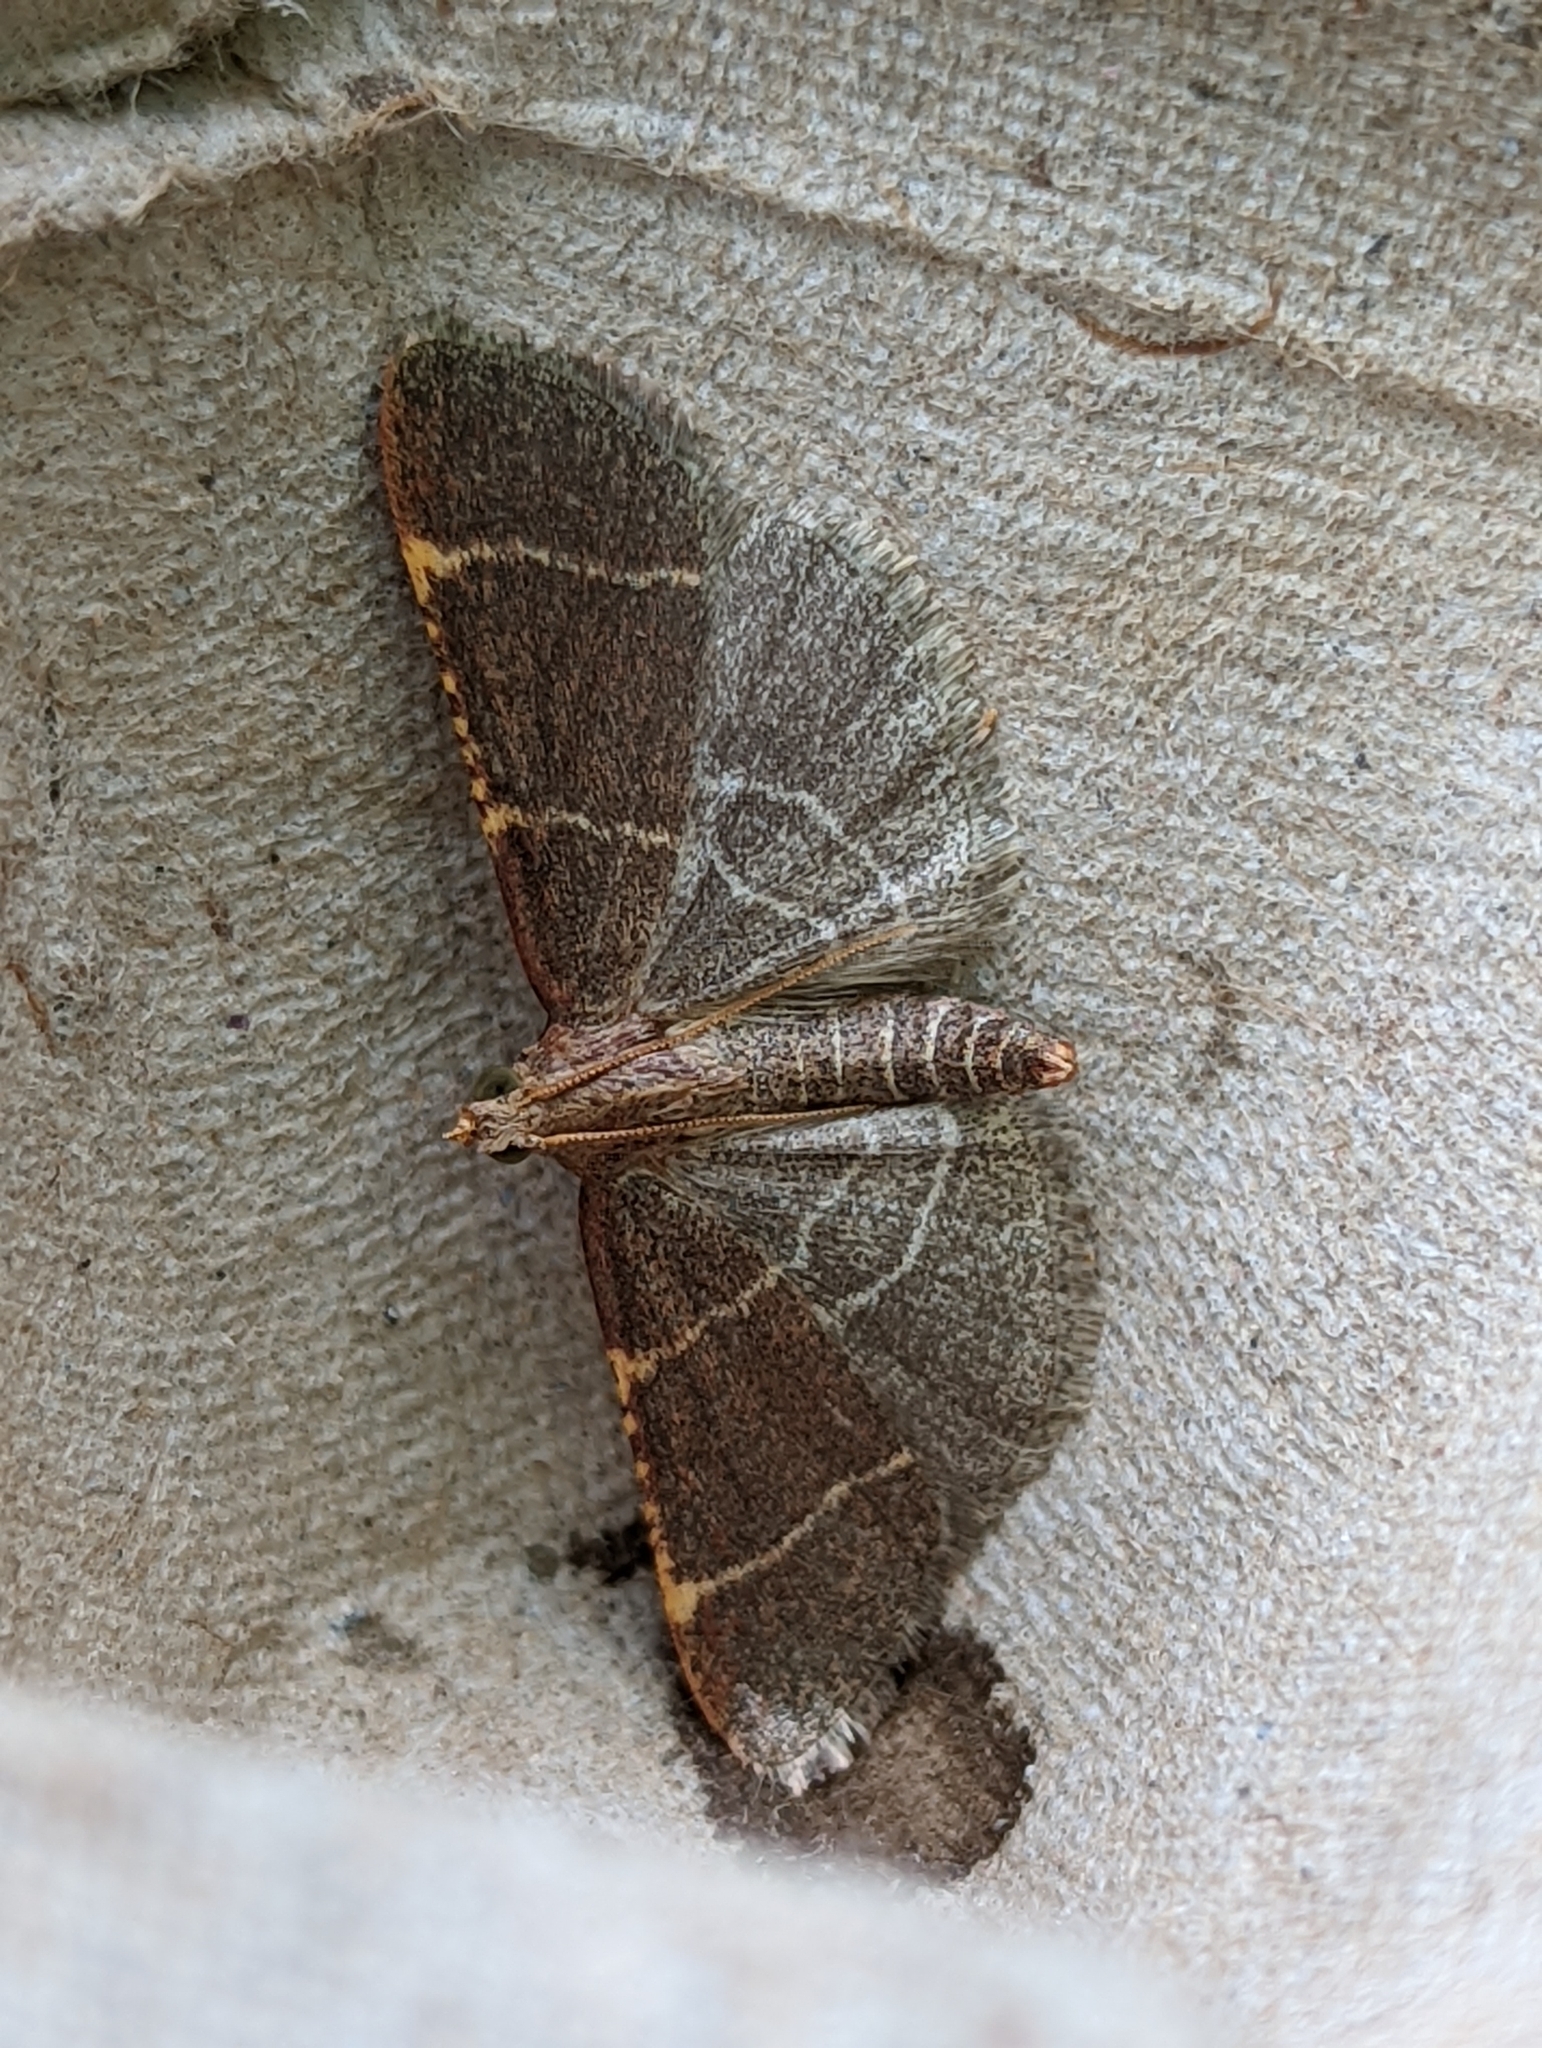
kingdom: Animalia
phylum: Arthropoda
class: Insecta
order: Lepidoptera
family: Pyralidae
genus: Hypsopygia
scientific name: Hypsopygia glaucinalis
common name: Double-striped tabby
